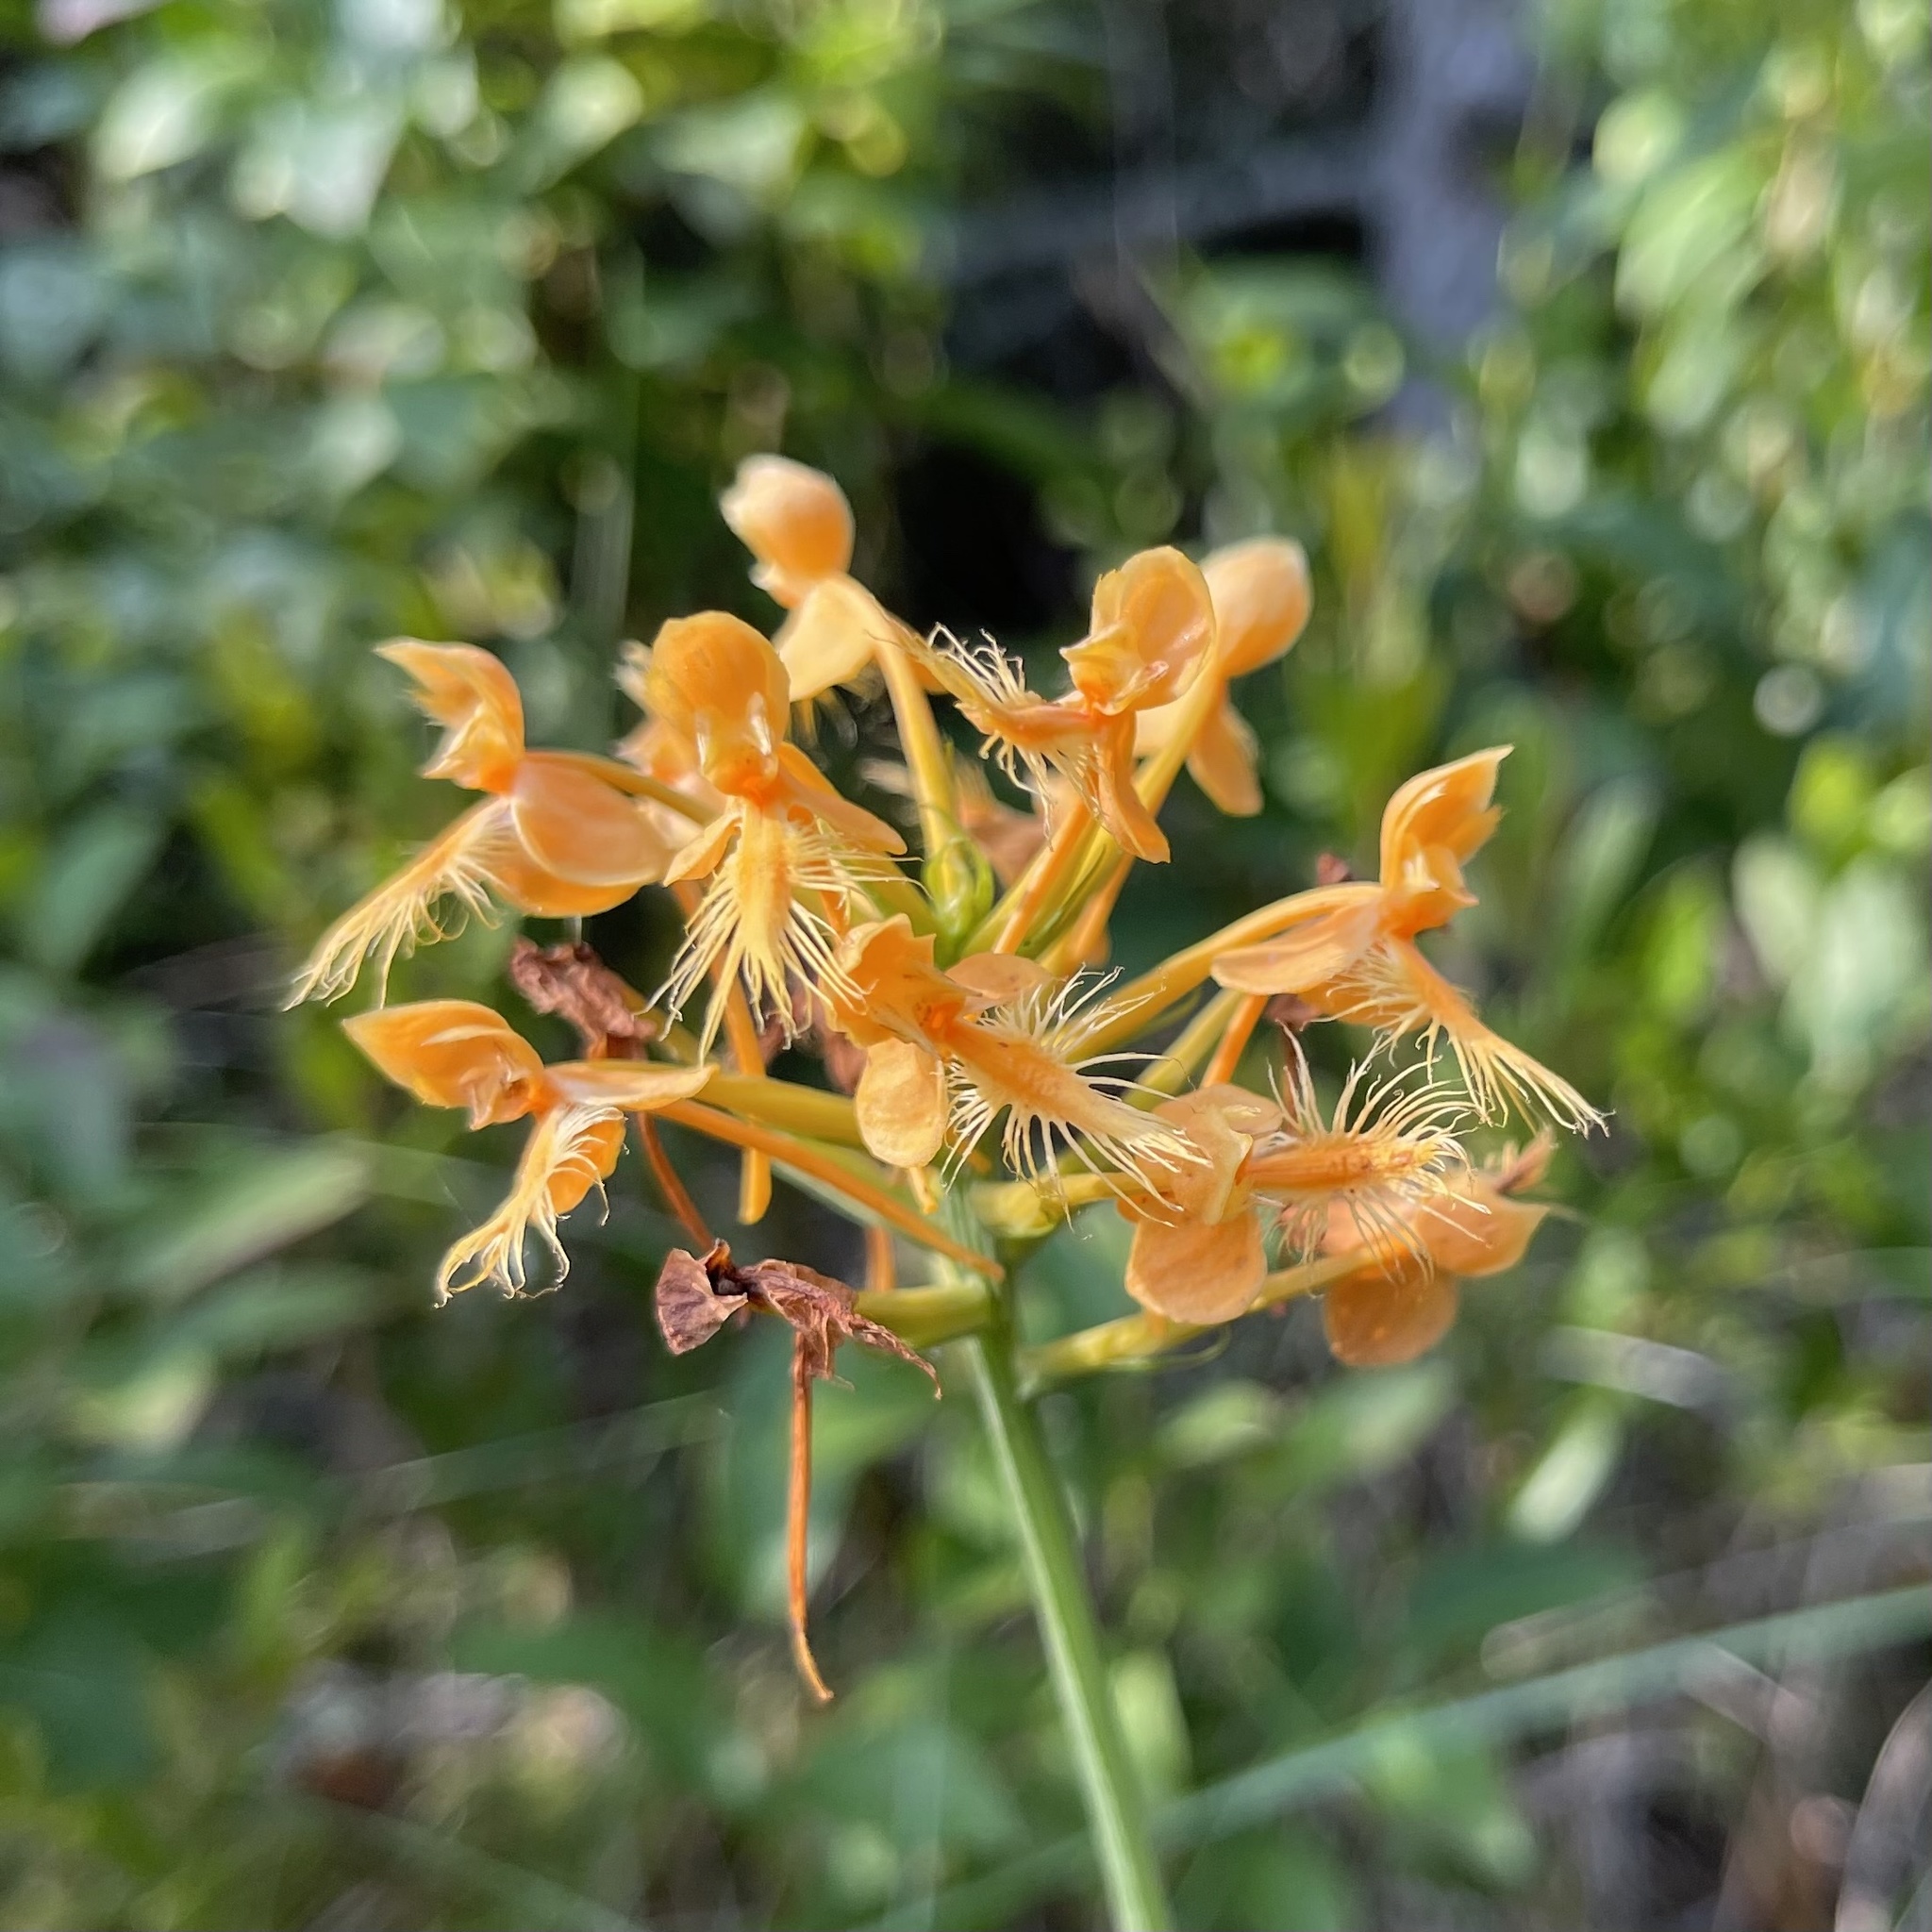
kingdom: Plantae
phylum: Tracheophyta
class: Liliopsida
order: Asparagales
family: Orchidaceae
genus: Platanthera
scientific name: Platanthera ciliaris
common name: Yellow fringed orchid
